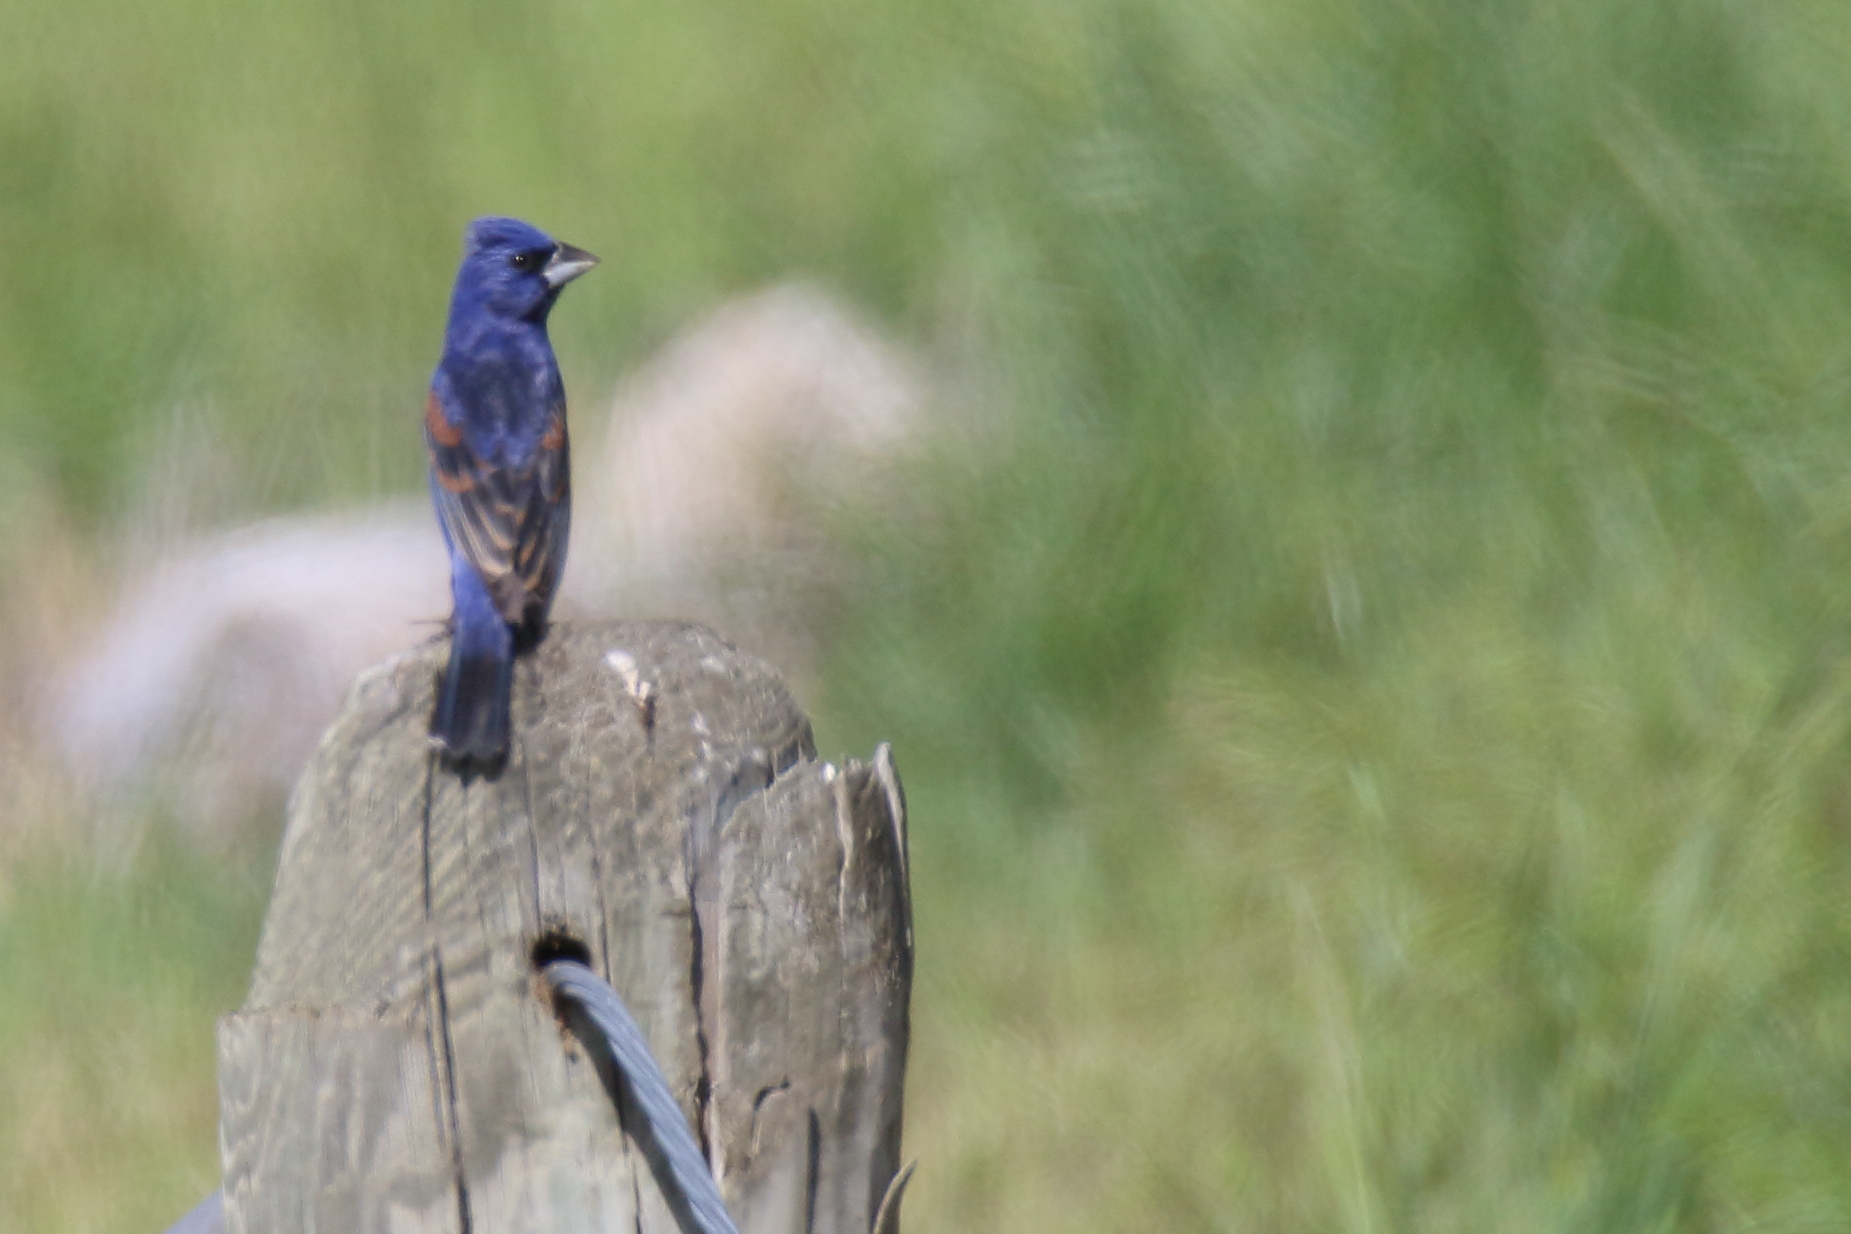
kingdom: Animalia
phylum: Chordata
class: Aves
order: Passeriformes
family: Cardinalidae
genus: Passerina
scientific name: Passerina caerulea
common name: Blue grosbeak
